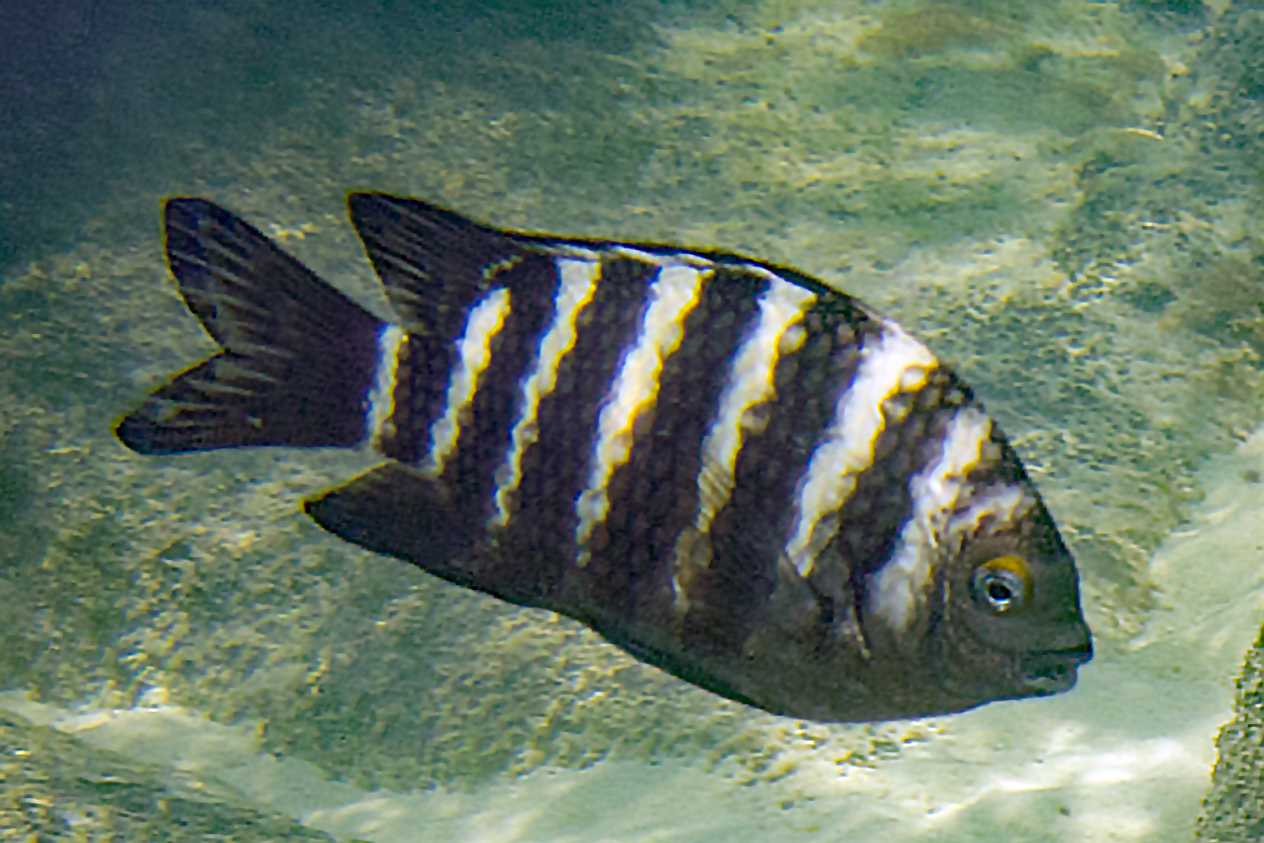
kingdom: Animalia
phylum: Chordata
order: Perciformes
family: Pomacentridae
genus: Abudefduf
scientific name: Abudefduf septemfasciatus
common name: Banded sergeant
